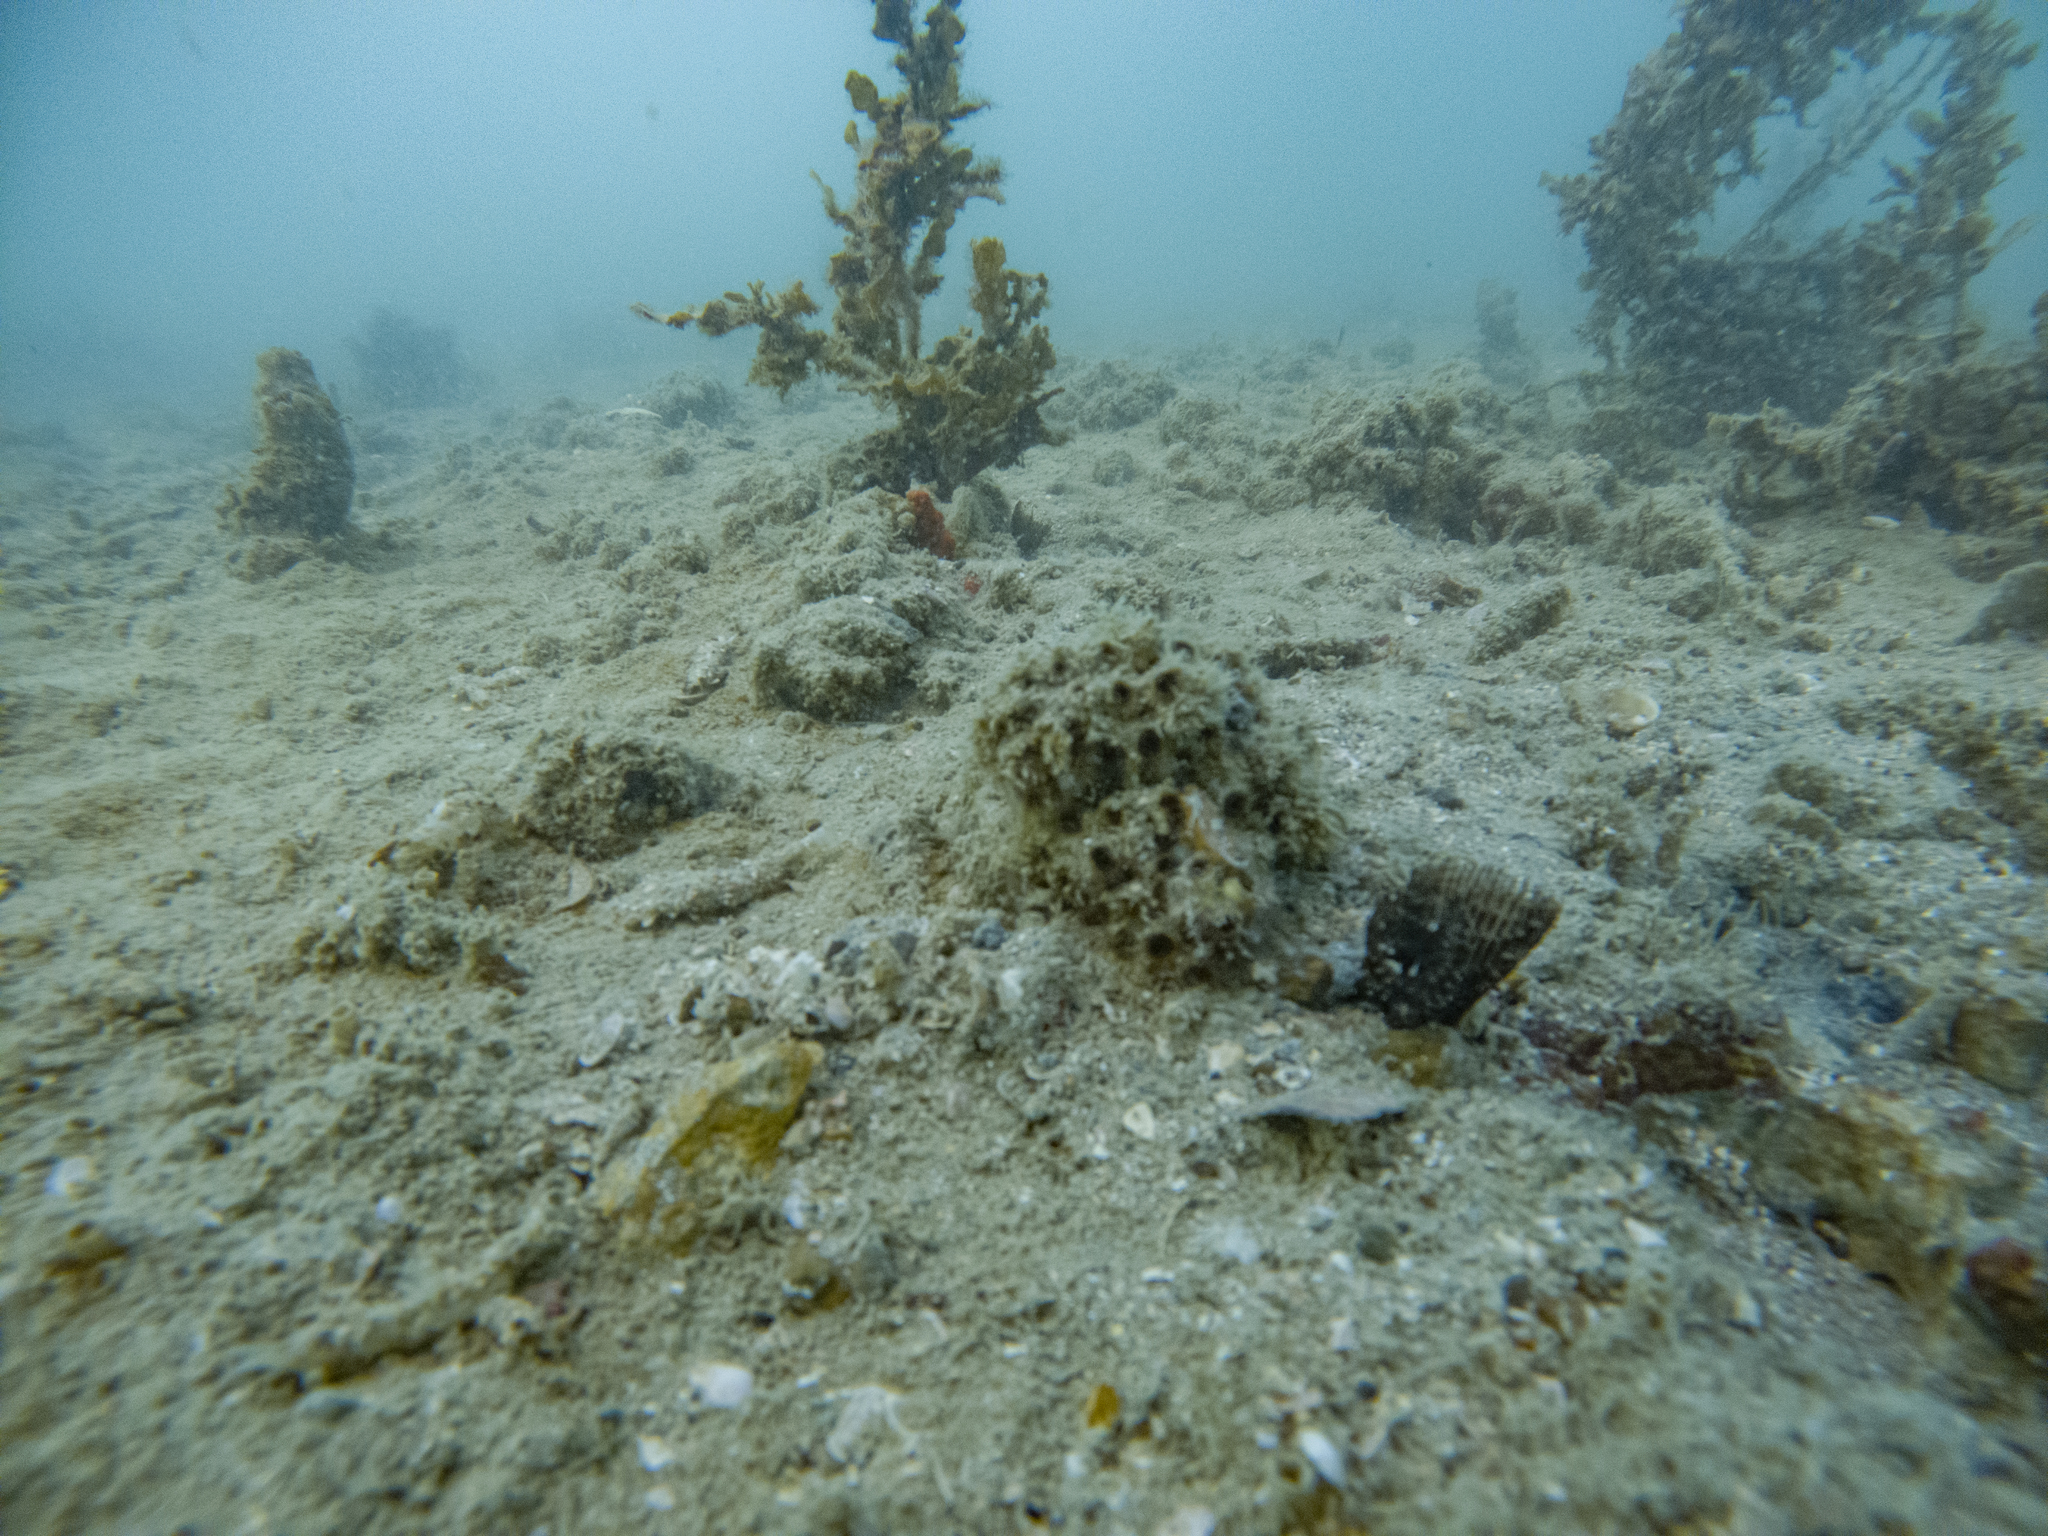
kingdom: Animalia
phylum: Cnidaria
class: Anthozoa
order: Scleractinia
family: Rhizangiidae
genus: Culicia
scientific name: Culicia rubeola
